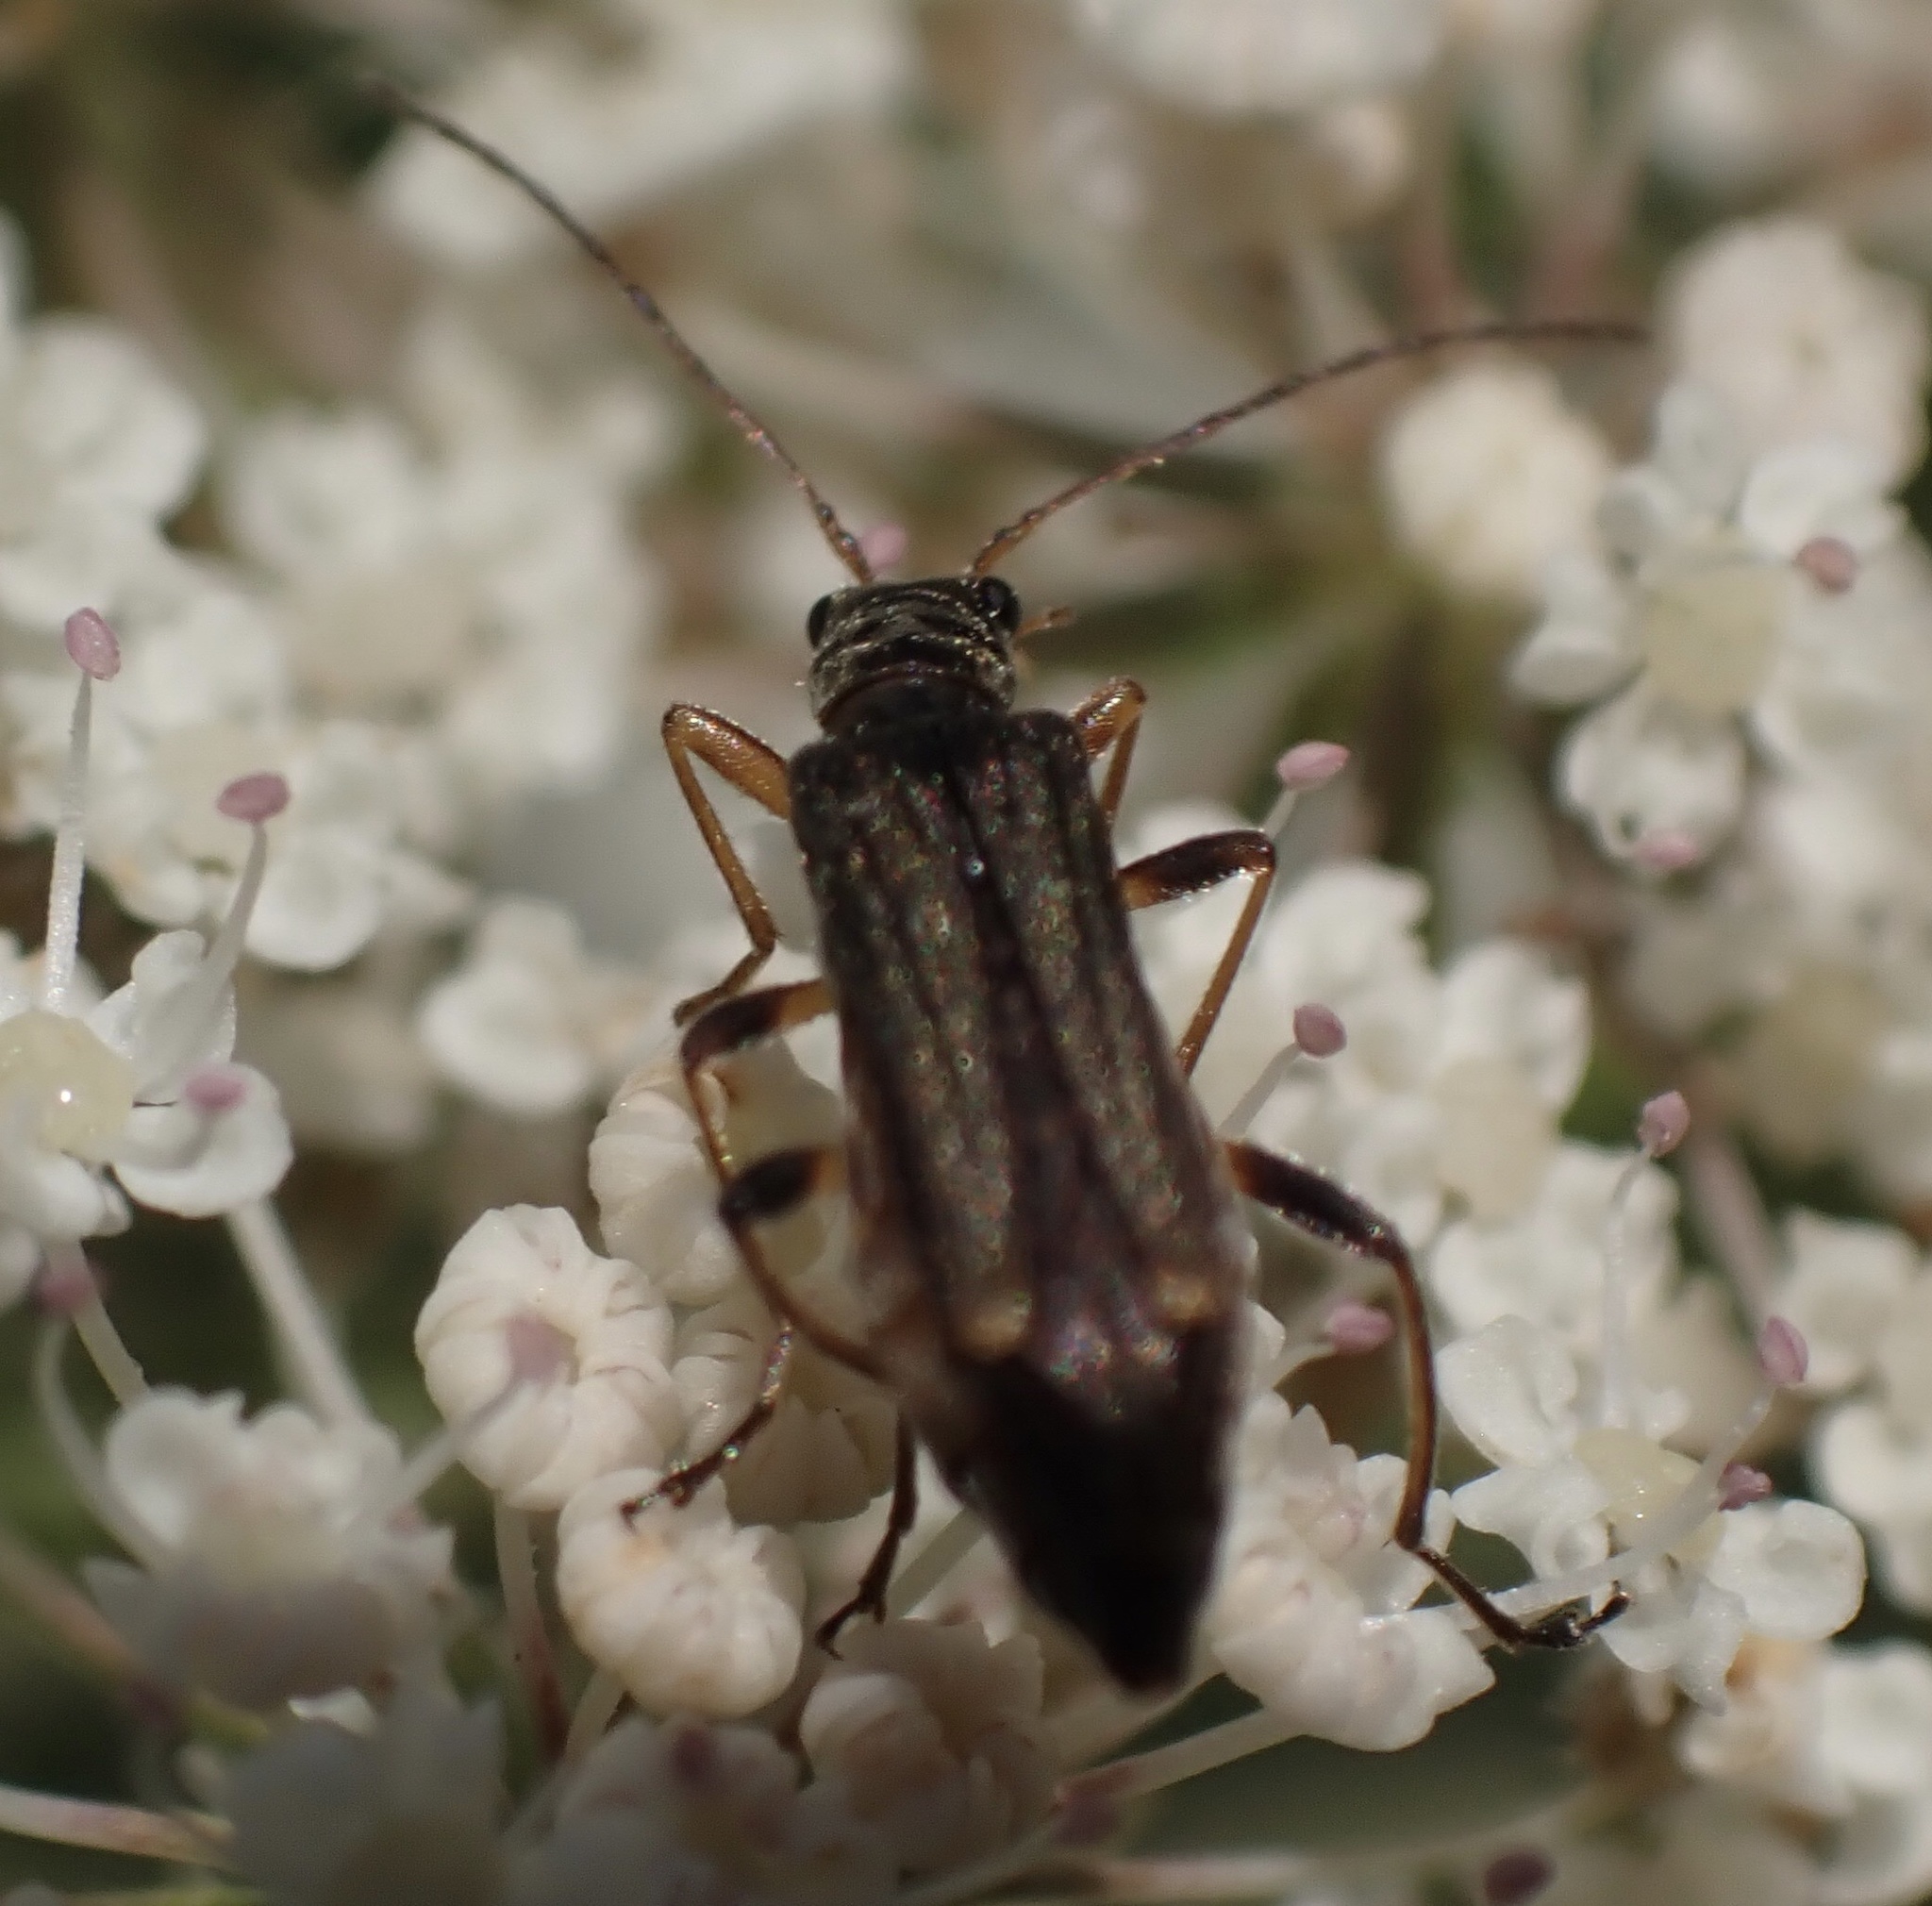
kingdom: Animalia
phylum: Arthropoda
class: Insecta
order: Coleoptera
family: Oedemeridae
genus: Oedemera
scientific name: Oedemera barbara
